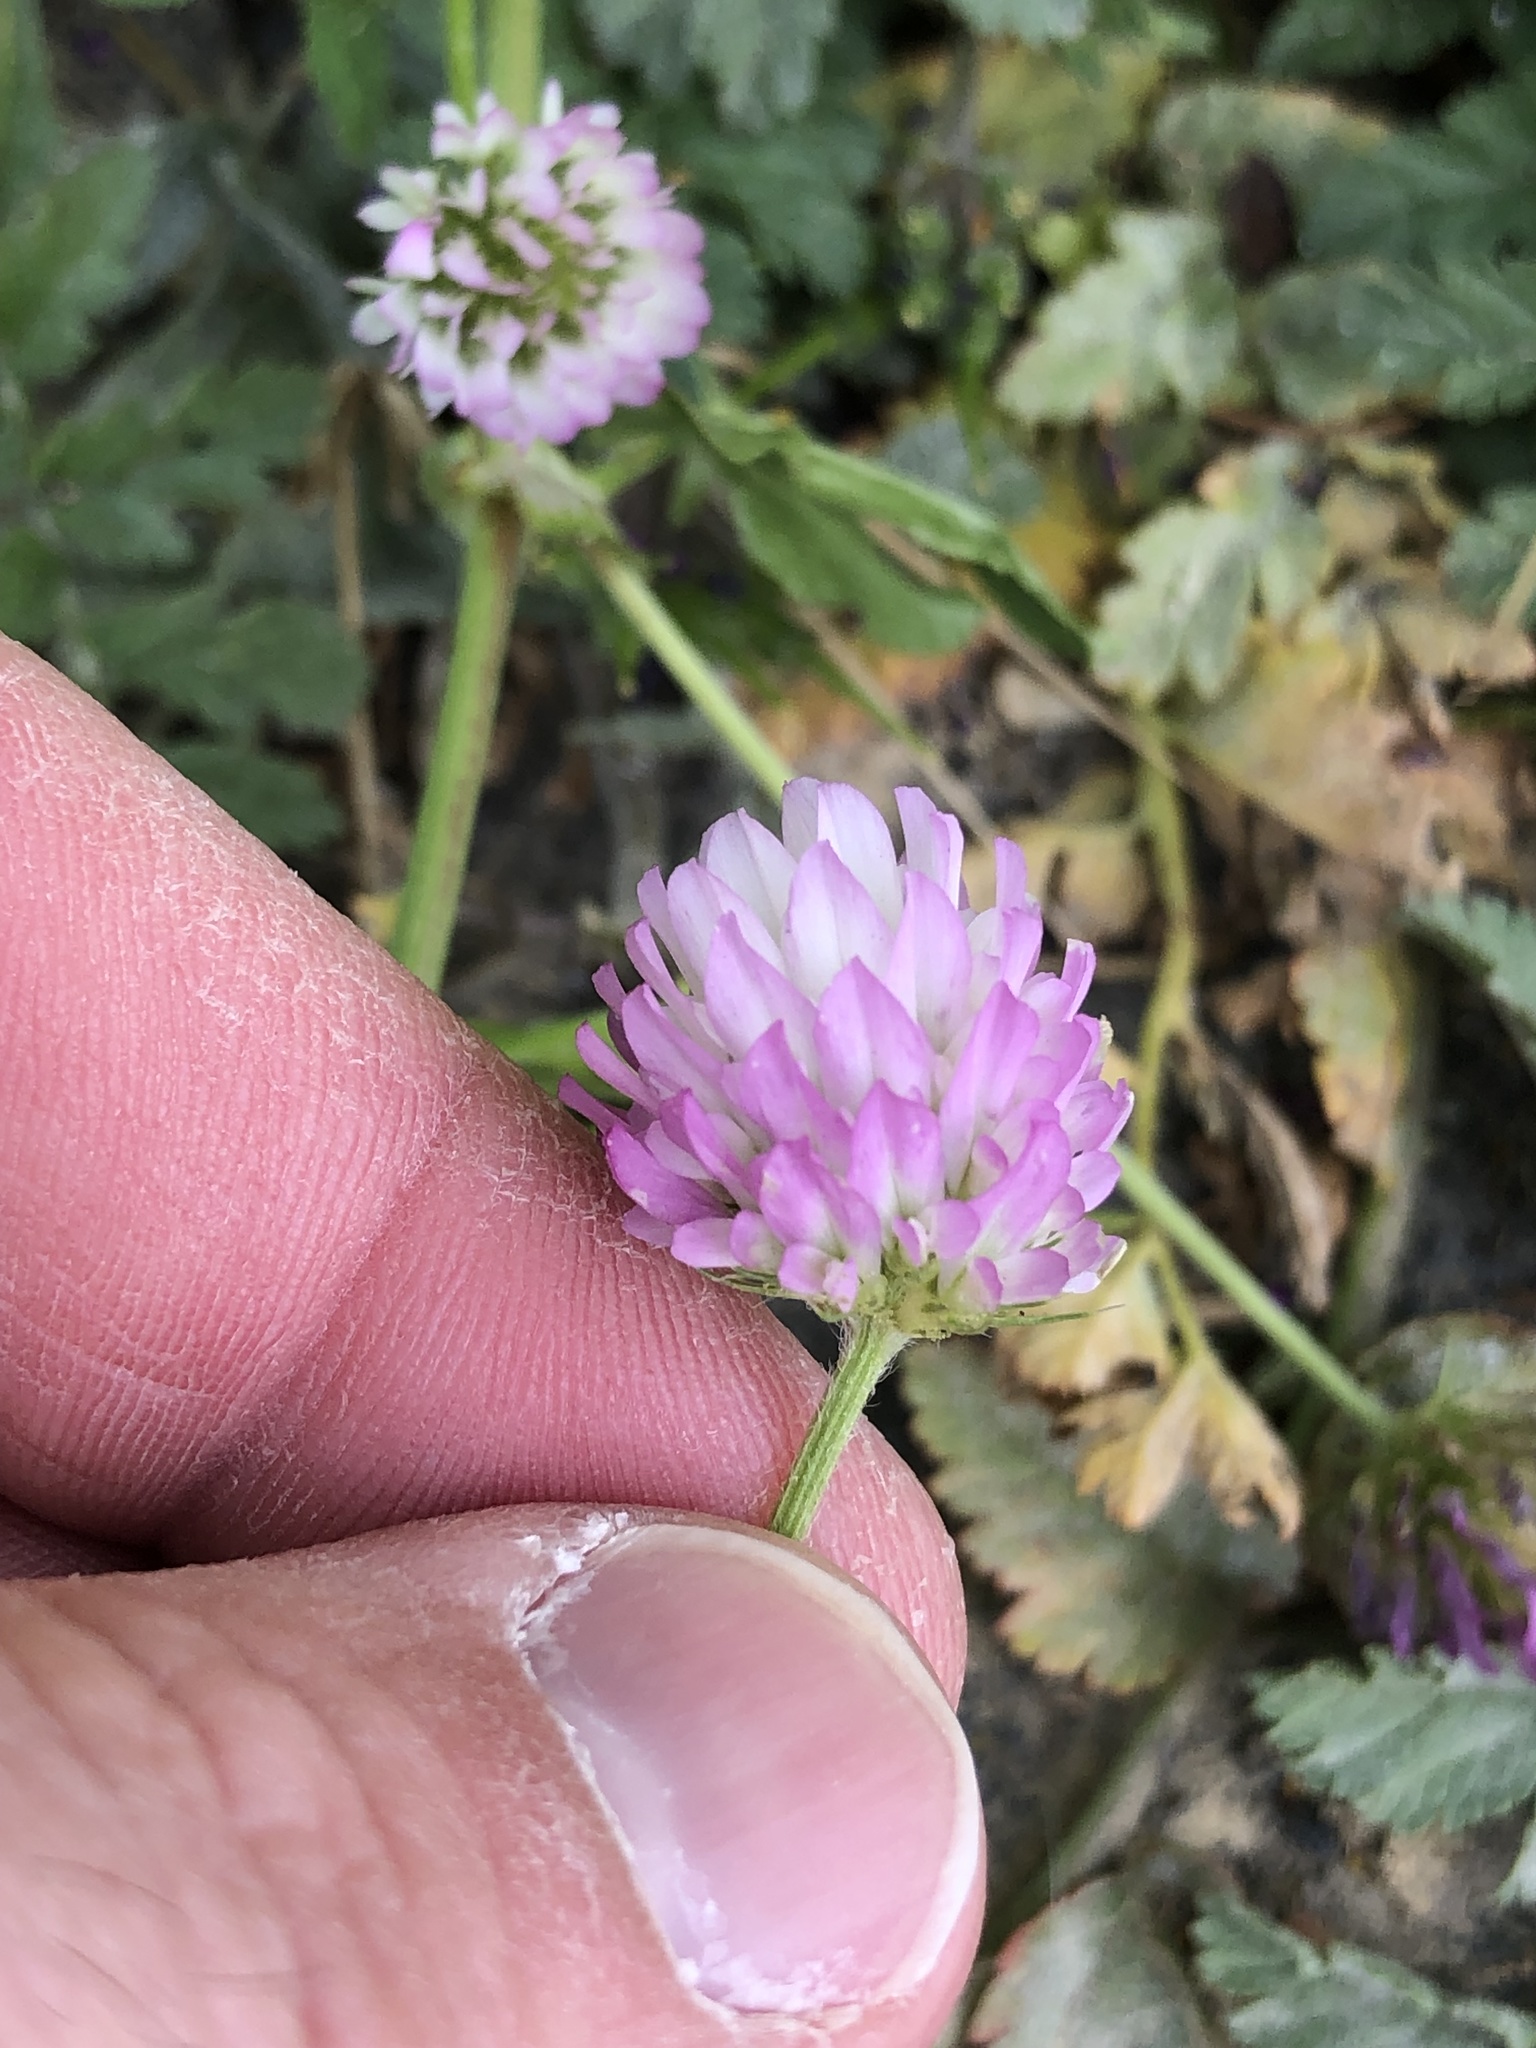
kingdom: Plantae
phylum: Tracheophyta
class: Magnoliopsida
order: Fabales
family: Fabaceae
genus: Trifolium
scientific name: Trifolium glanduliferum
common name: Glandular clover
